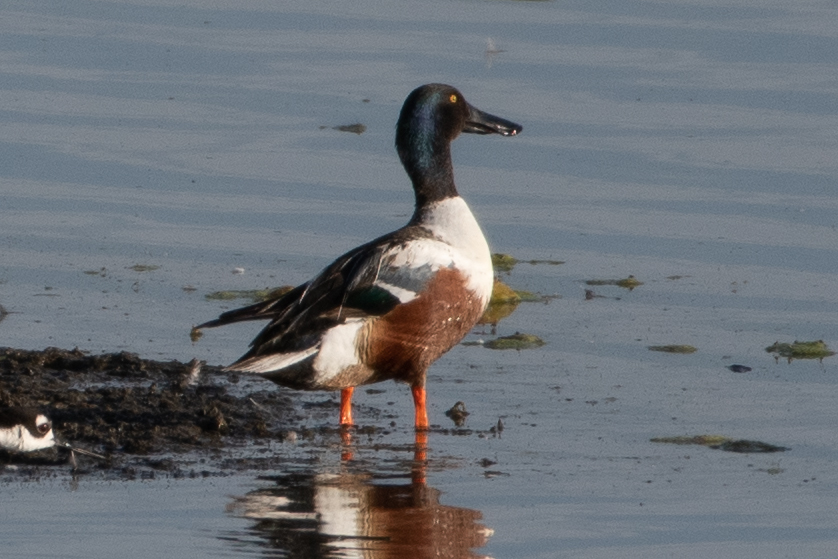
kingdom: Animalia
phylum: Chordata
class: Aves
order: Anseriformes
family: Anatidae
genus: Spatula
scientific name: Spatula clypeata
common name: Northern shoveler
